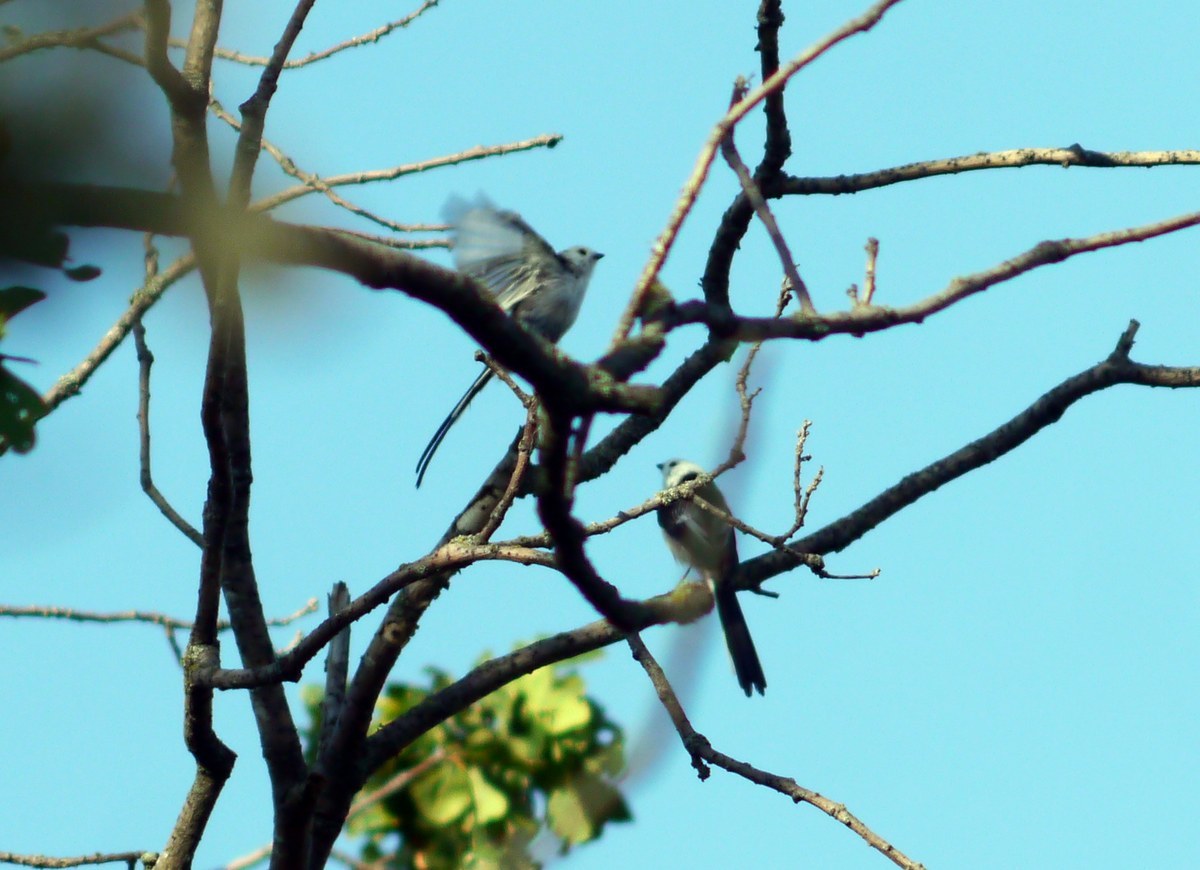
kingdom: Animalia
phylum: Chordata
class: Aves
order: Passeriformes
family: Aegithalidae
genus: Aegithalos
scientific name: Aegithalos caudatus
